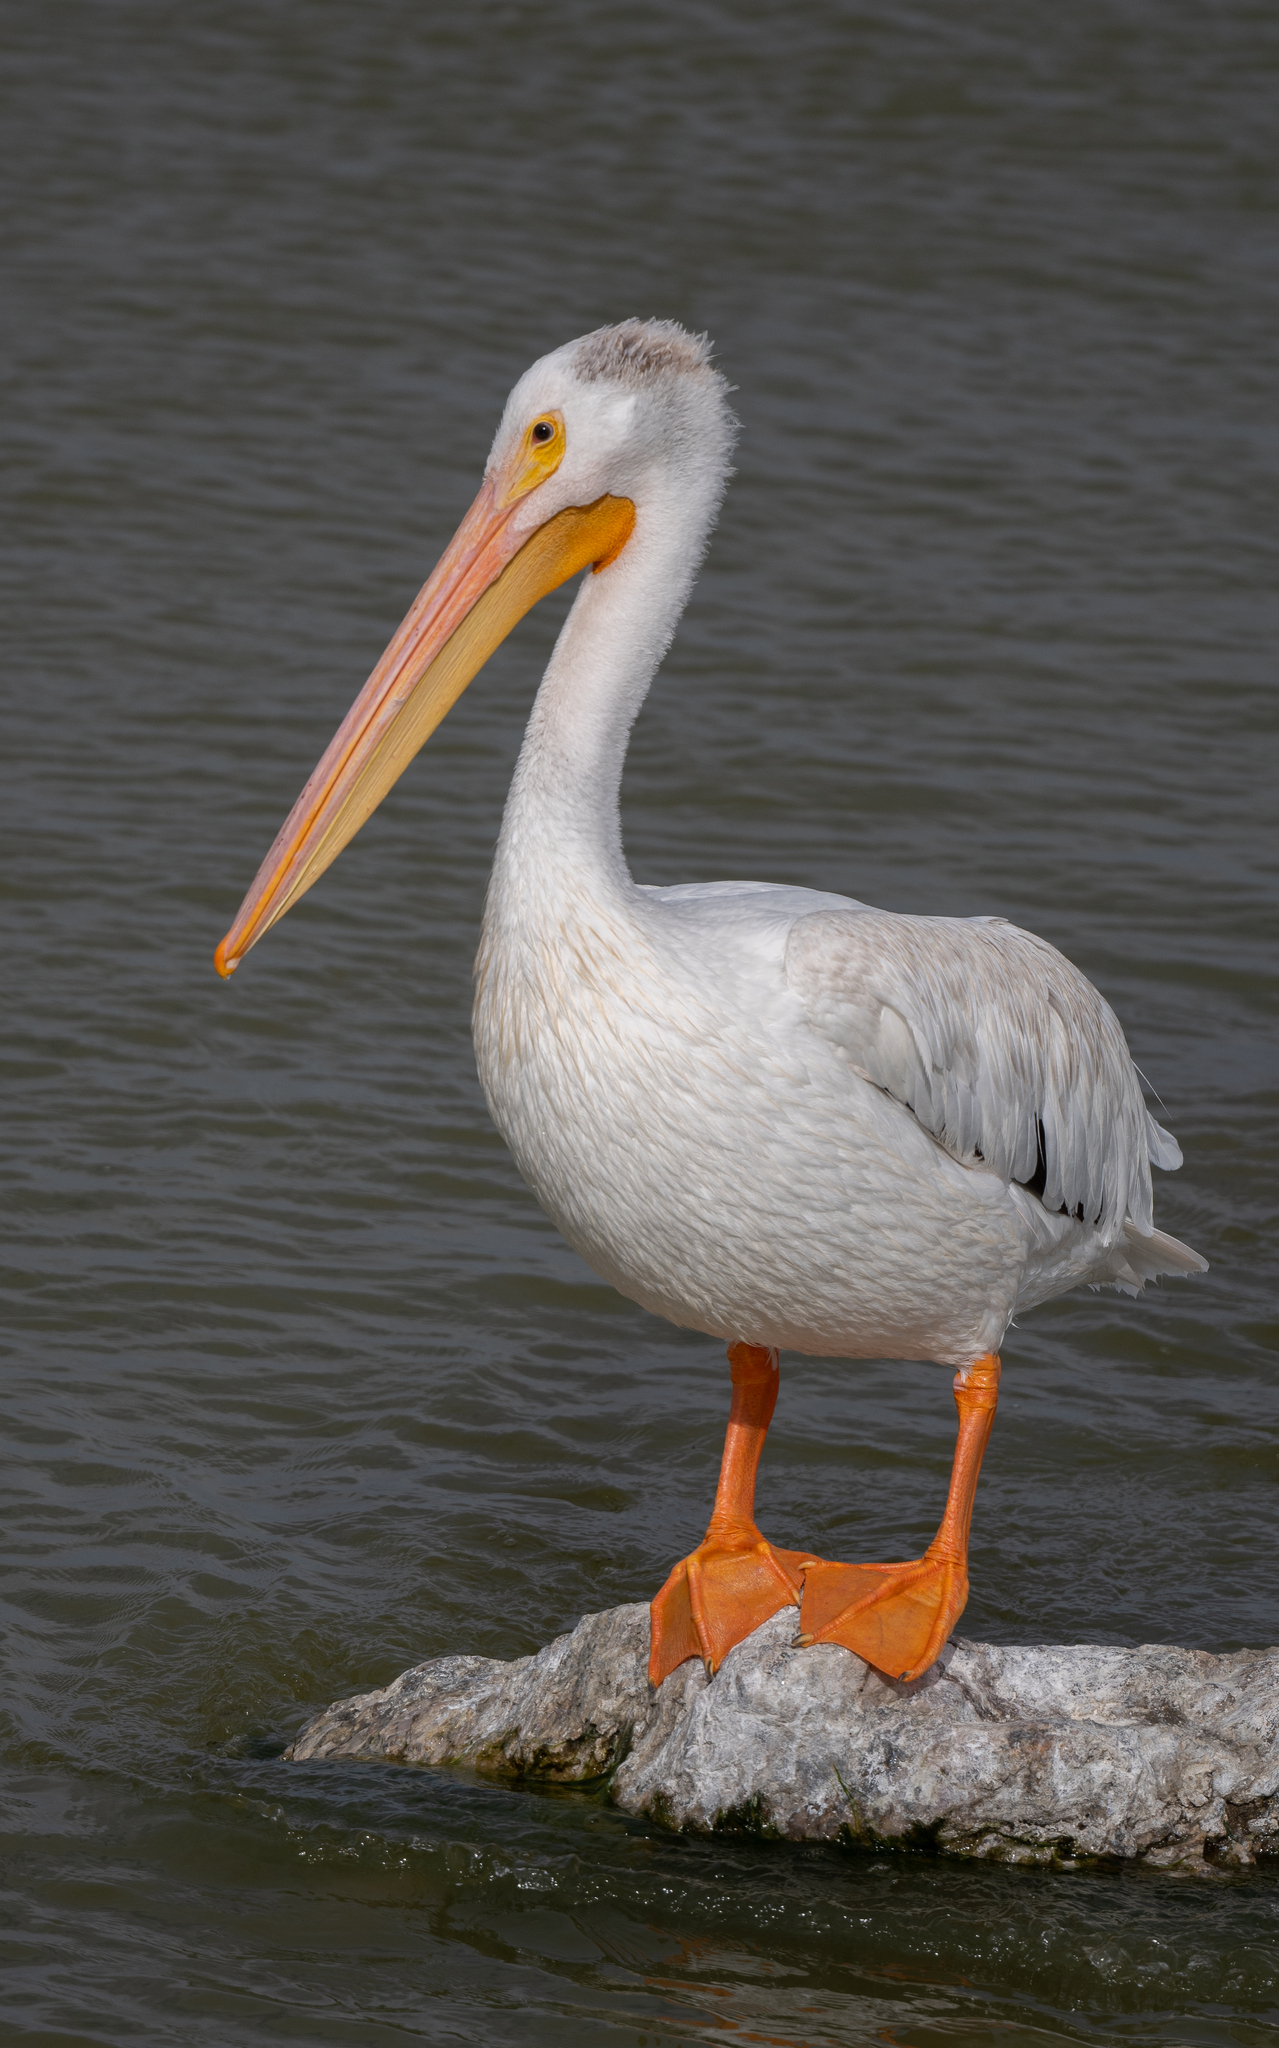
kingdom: Animalia
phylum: Chordata
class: Aves
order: Pelecaniformes
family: Pelecanidae
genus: Pelecanus
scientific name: Pelecanus erythrorhynchos
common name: American white pelican
